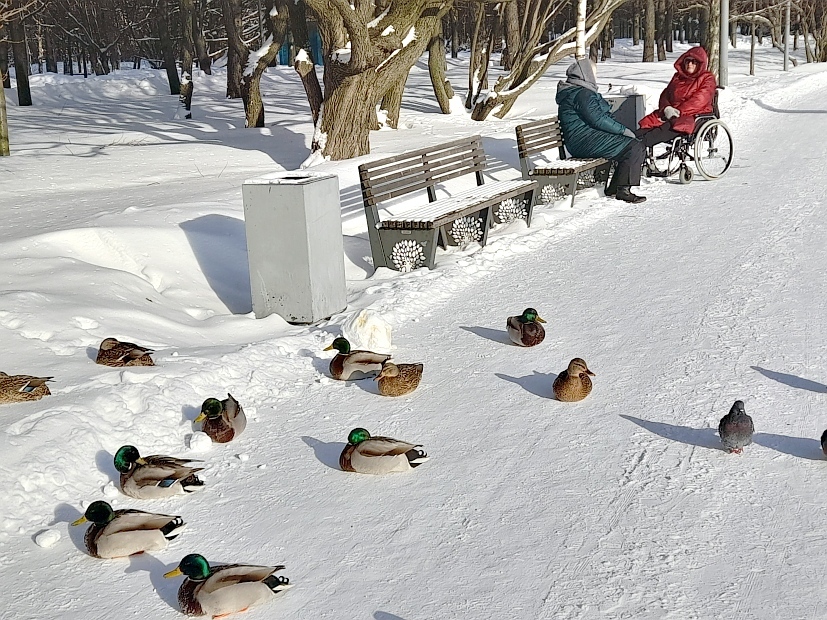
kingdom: Animalia
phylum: Chordata
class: Aves
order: Anseriformes
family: Anatidae
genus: Anas
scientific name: Anas platyrhynchos
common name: Mallard
